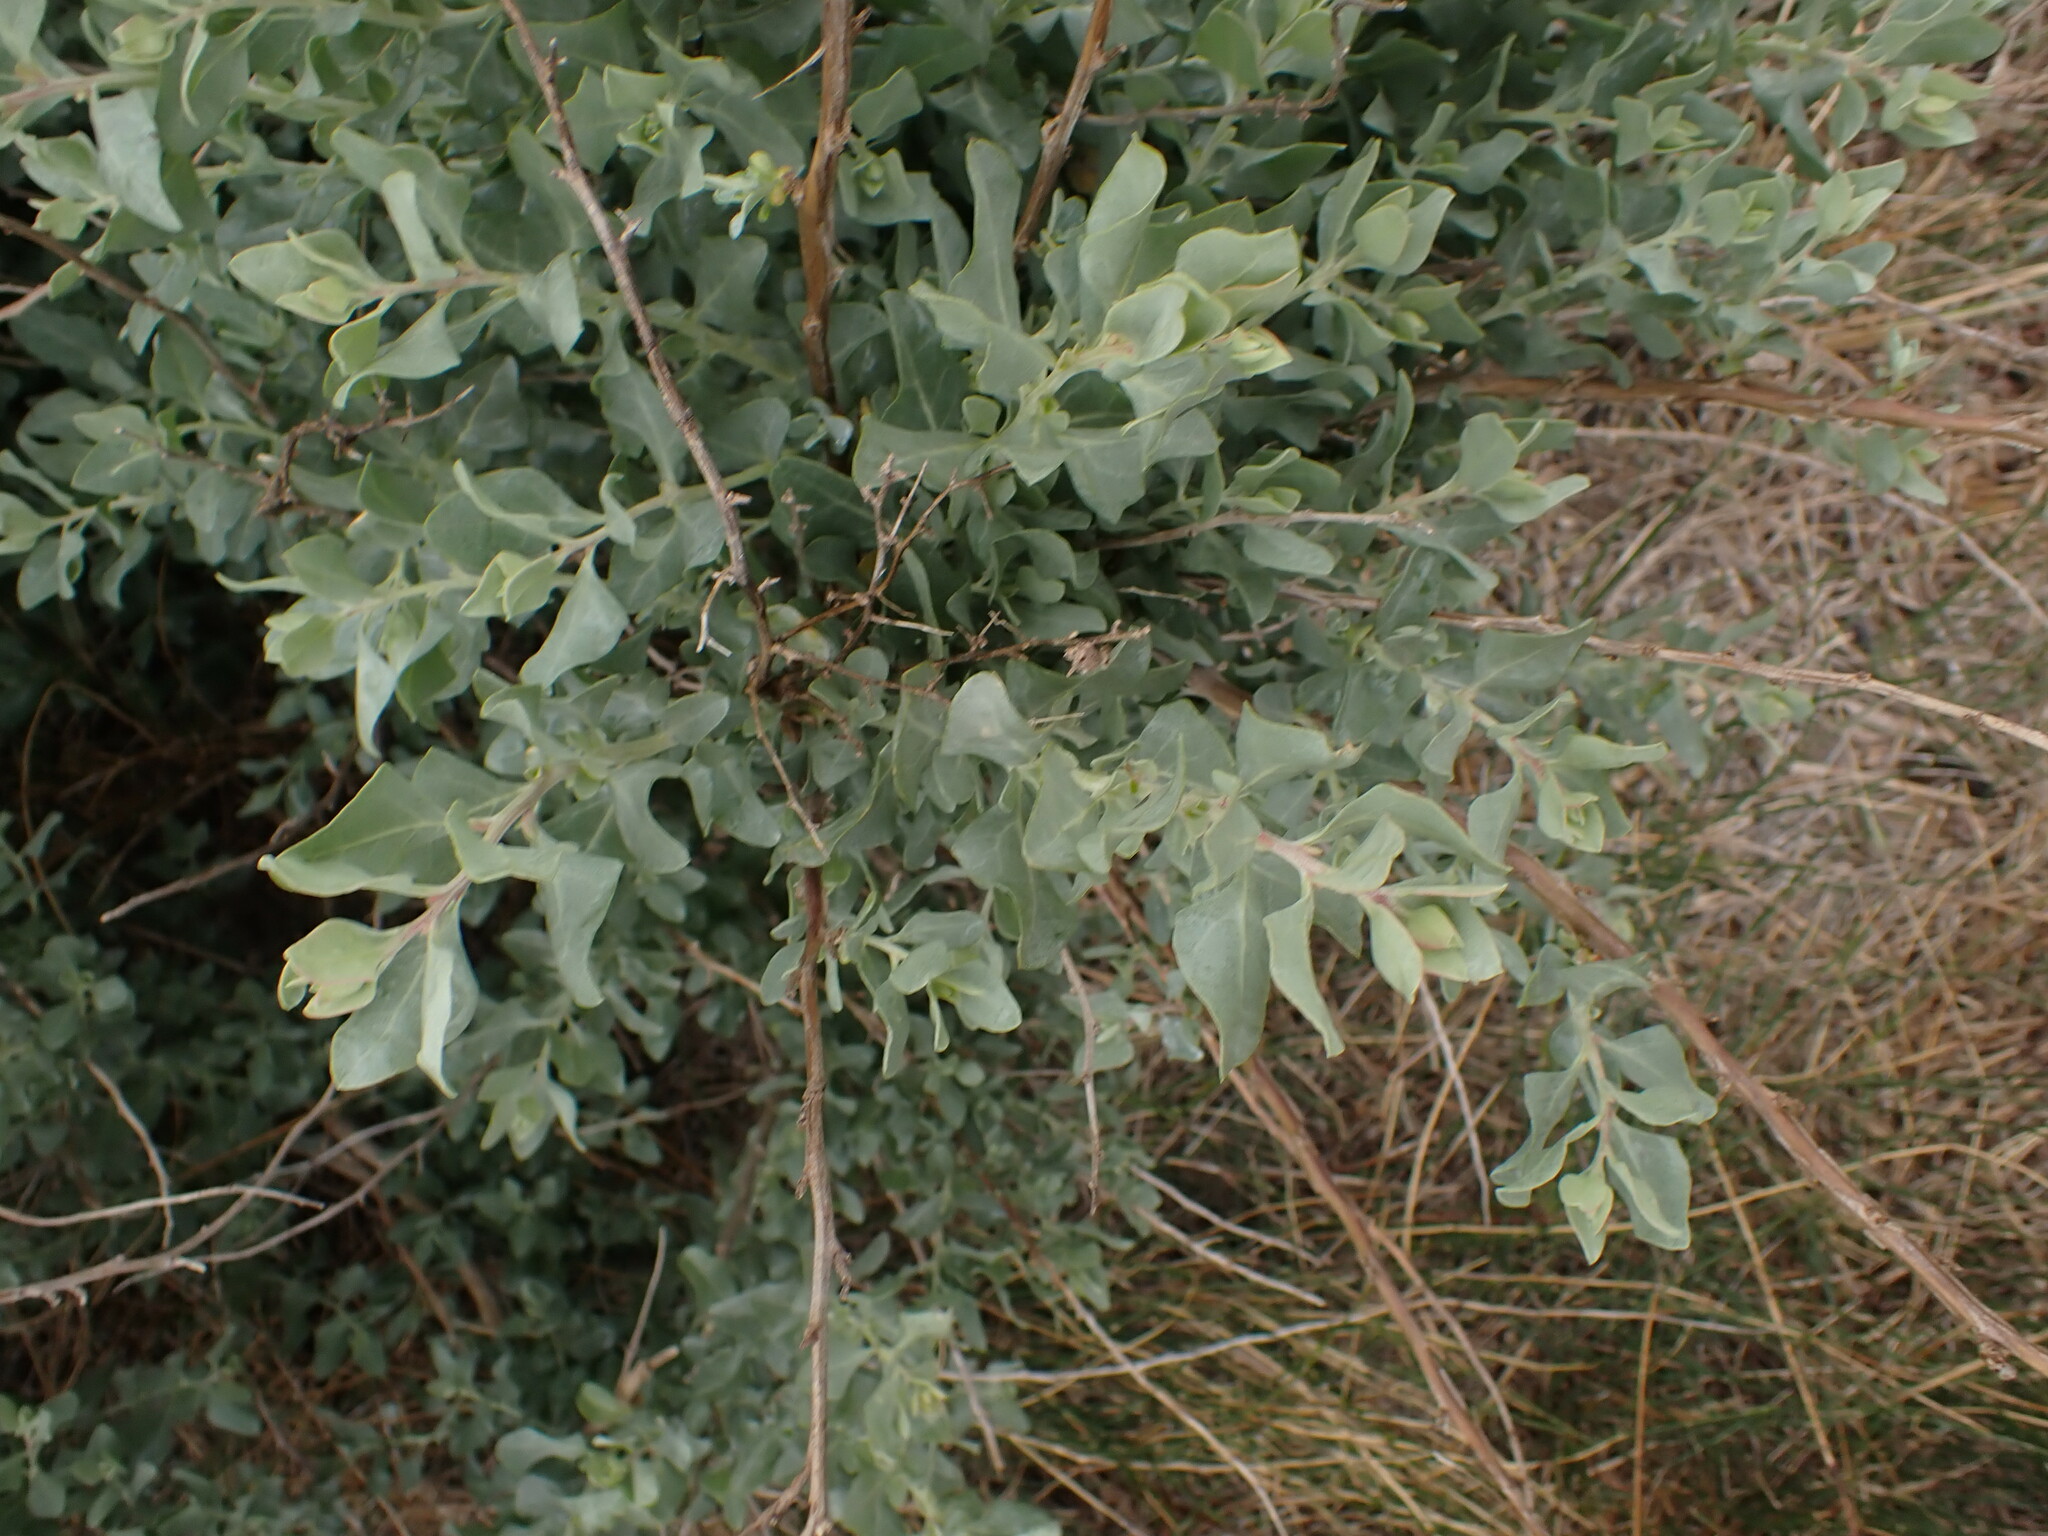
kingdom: Plantae
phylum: Tracheophyta
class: Magnoliopsida
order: Caryophyllales
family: Amaranthaceae
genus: Atriplex
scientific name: Atriplex halimus
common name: Shrubby orache
